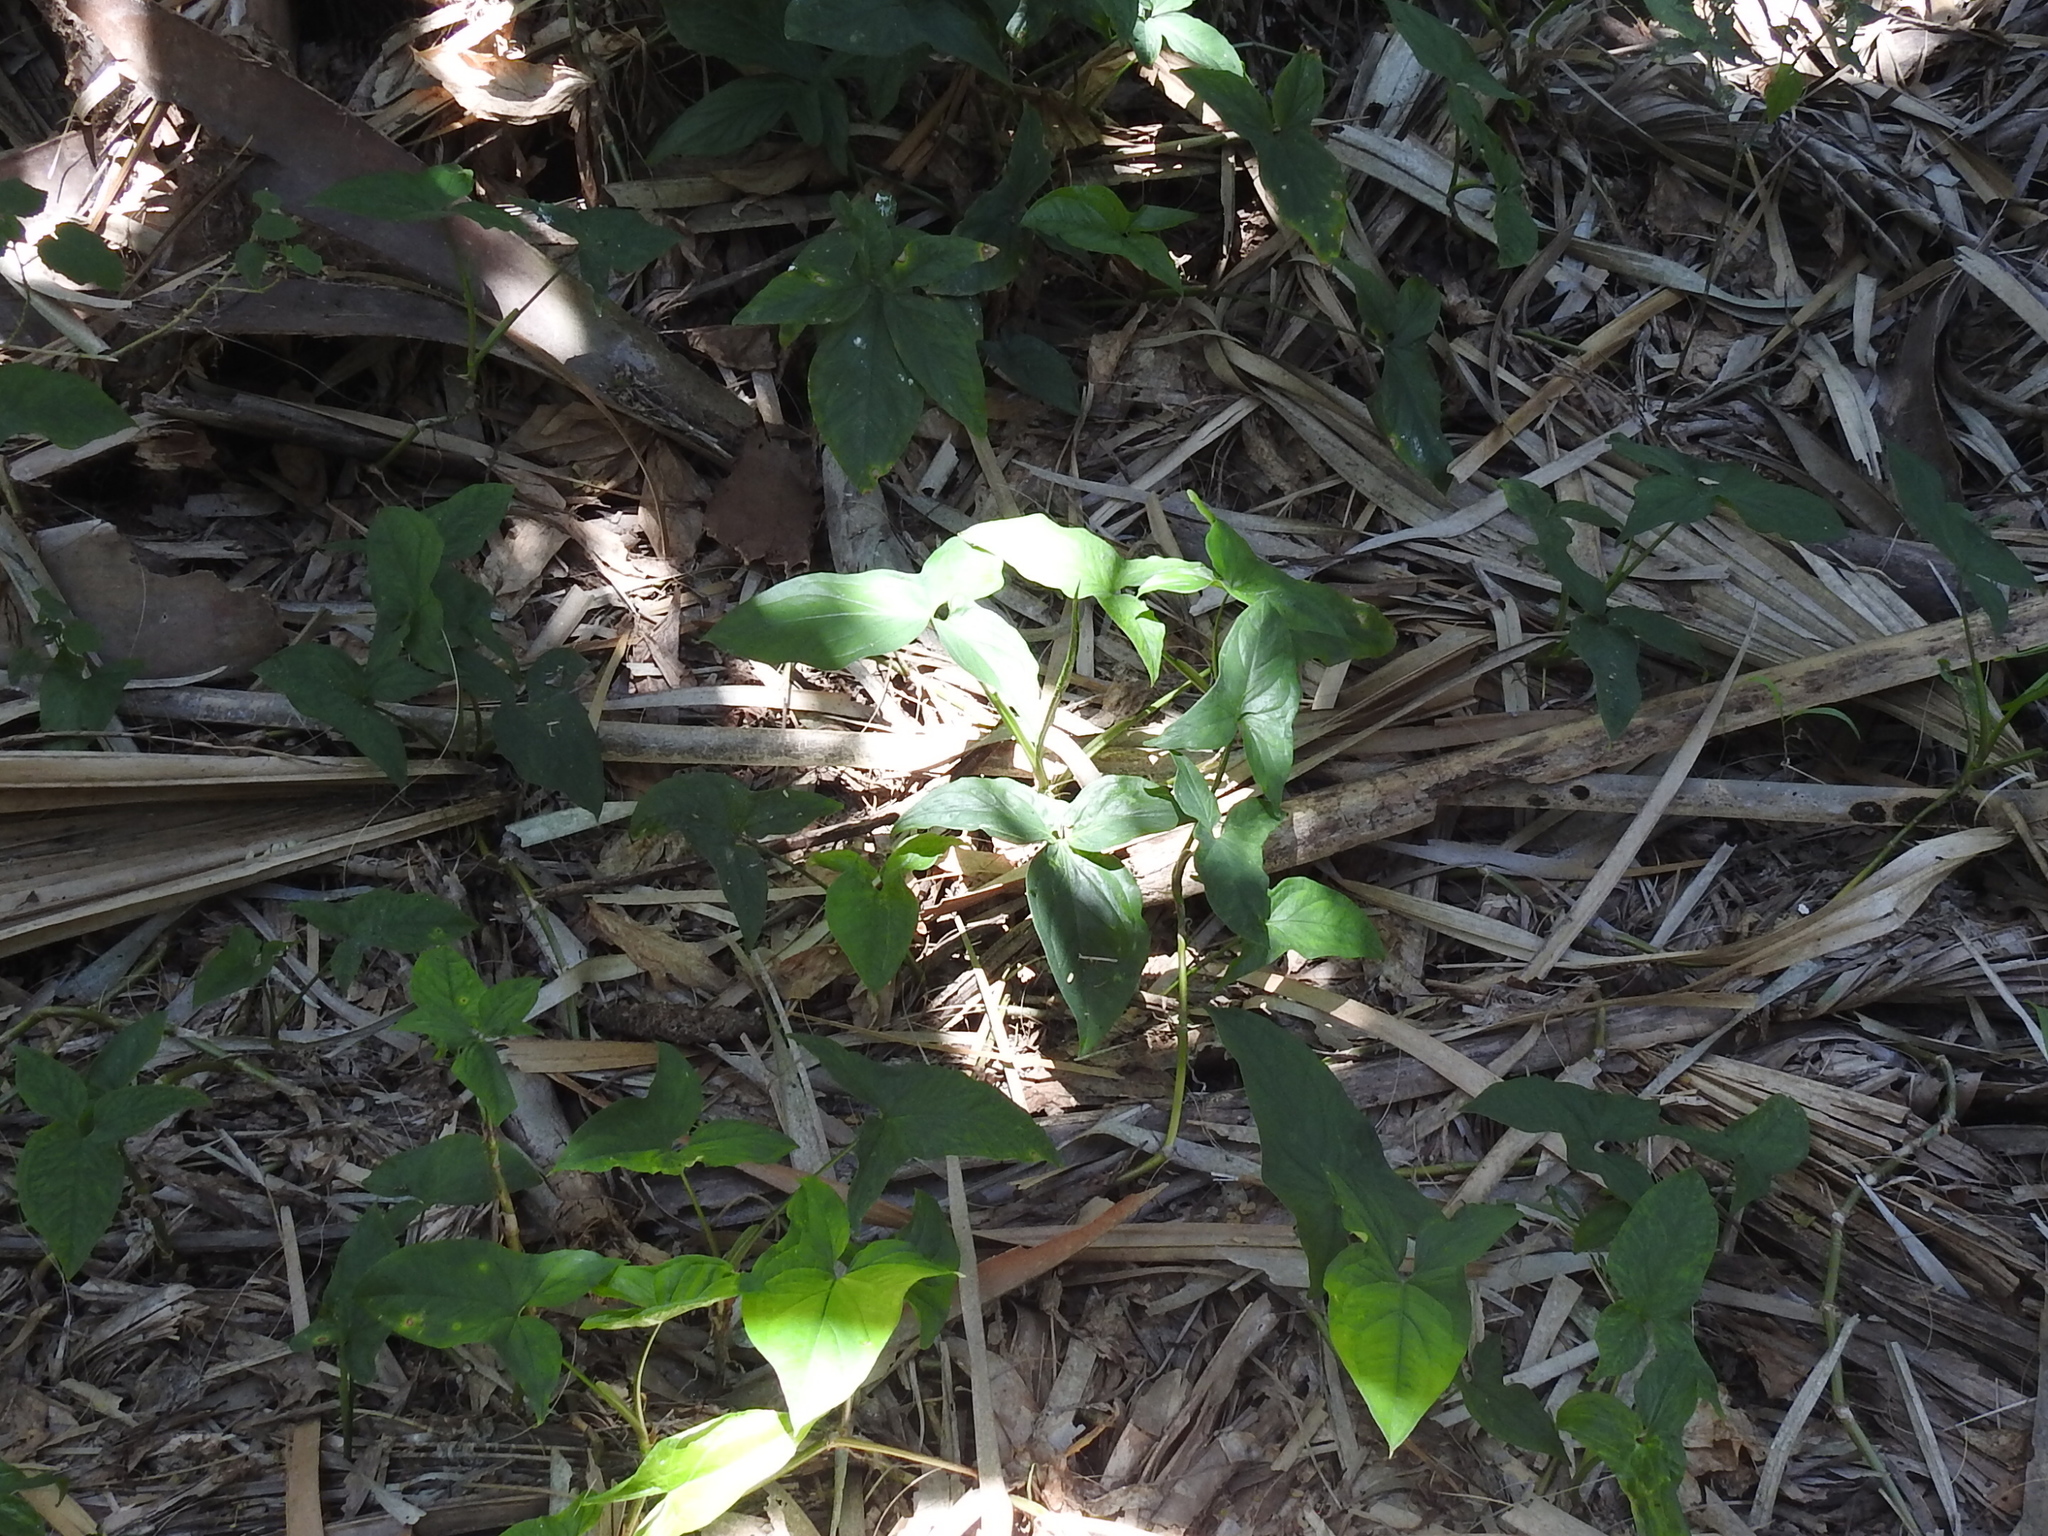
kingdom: Plantae
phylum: Tracheophyta
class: Liliopsida
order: Alismatales
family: Araceae
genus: Syngonium
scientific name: Syngonium podophyllum
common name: American evergreen
